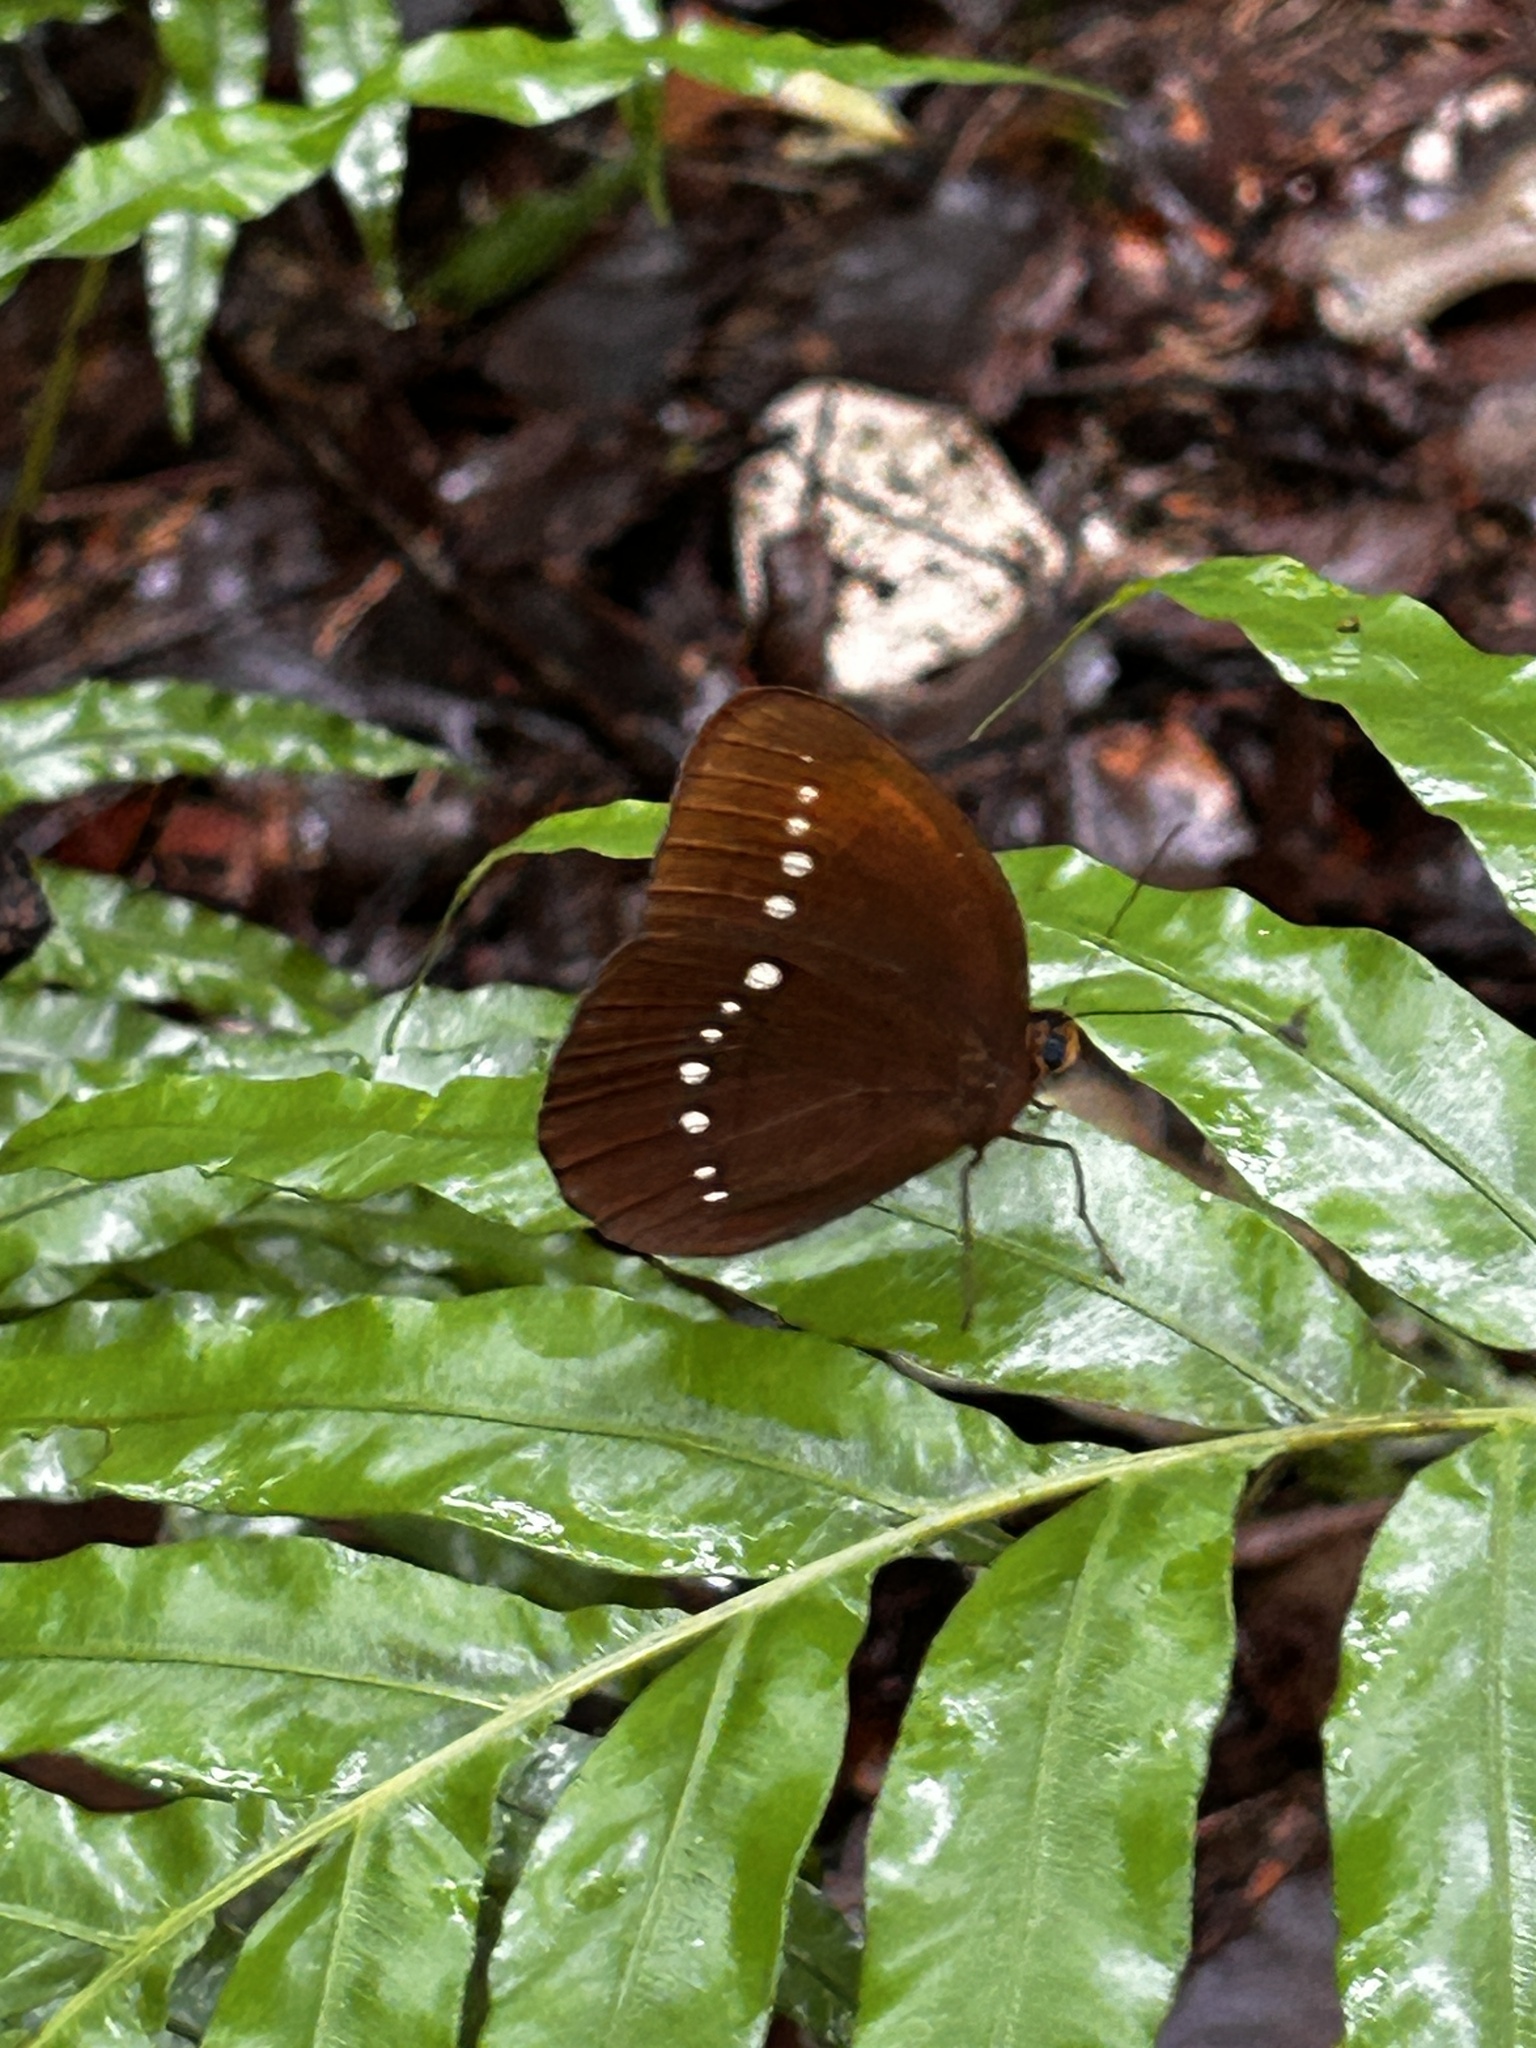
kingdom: Animalia
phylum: Arthropoda
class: Insecta
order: Lepidoptera
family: Nymphalidae
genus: Faunis
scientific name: Faunis eumeus
